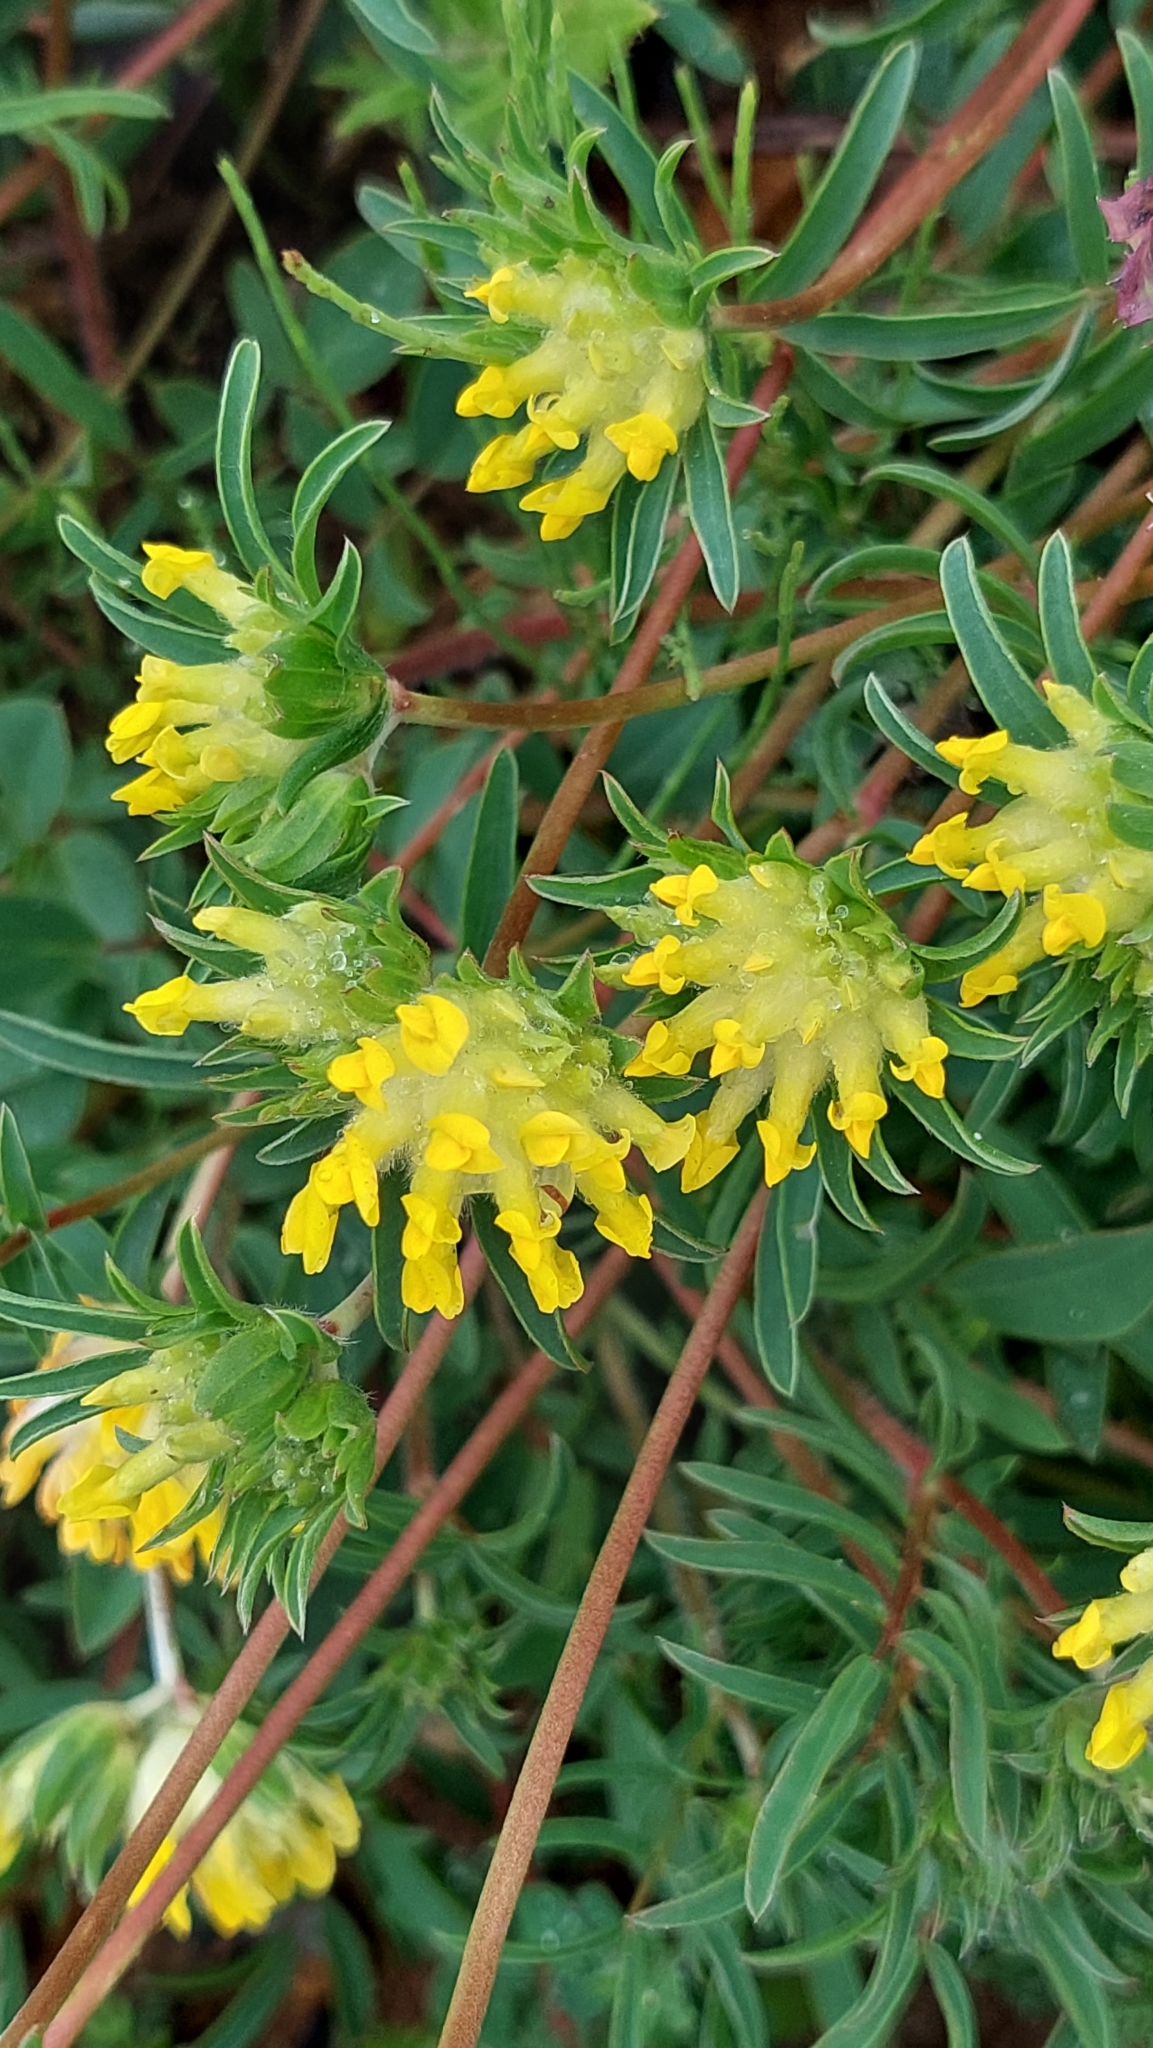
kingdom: Plantae
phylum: Tracheophyta
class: Magnoliopsida
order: Fabales
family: Fabaceae
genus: Anthyllis
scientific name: Anthyllis vulneraria
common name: Kidney vetch
